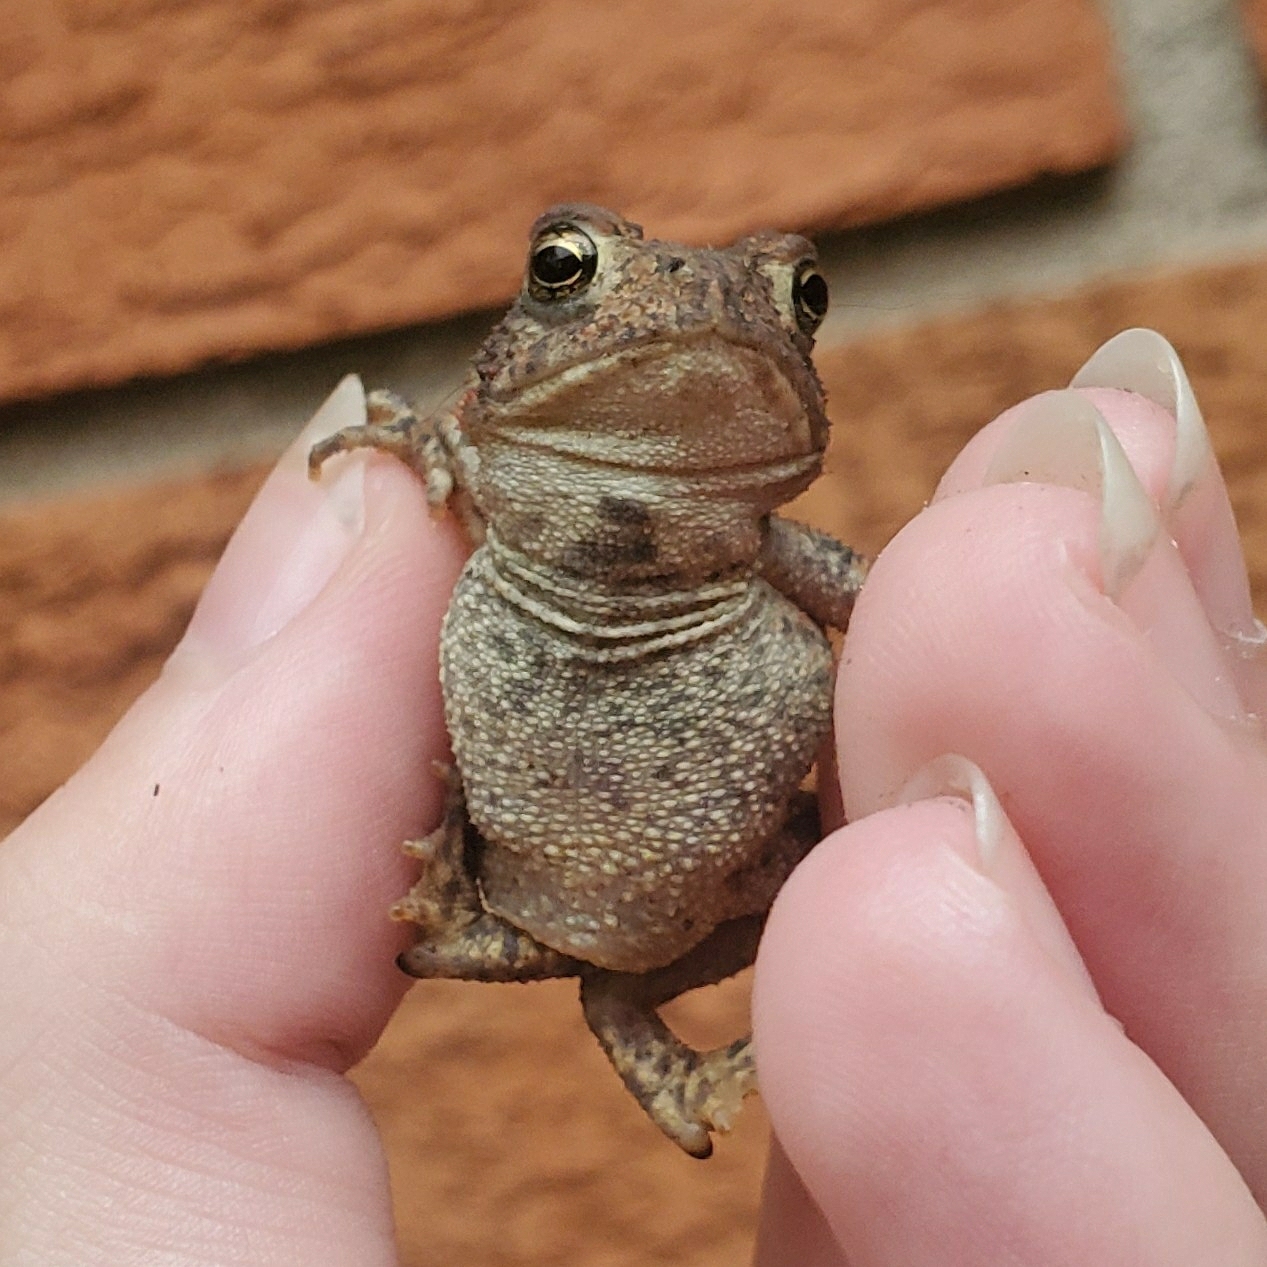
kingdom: Animalia
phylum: Chordata
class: Amphibia
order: Anura
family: Bufonidae
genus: Anaxyrus
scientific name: Anaxyrus americanus
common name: American toad
